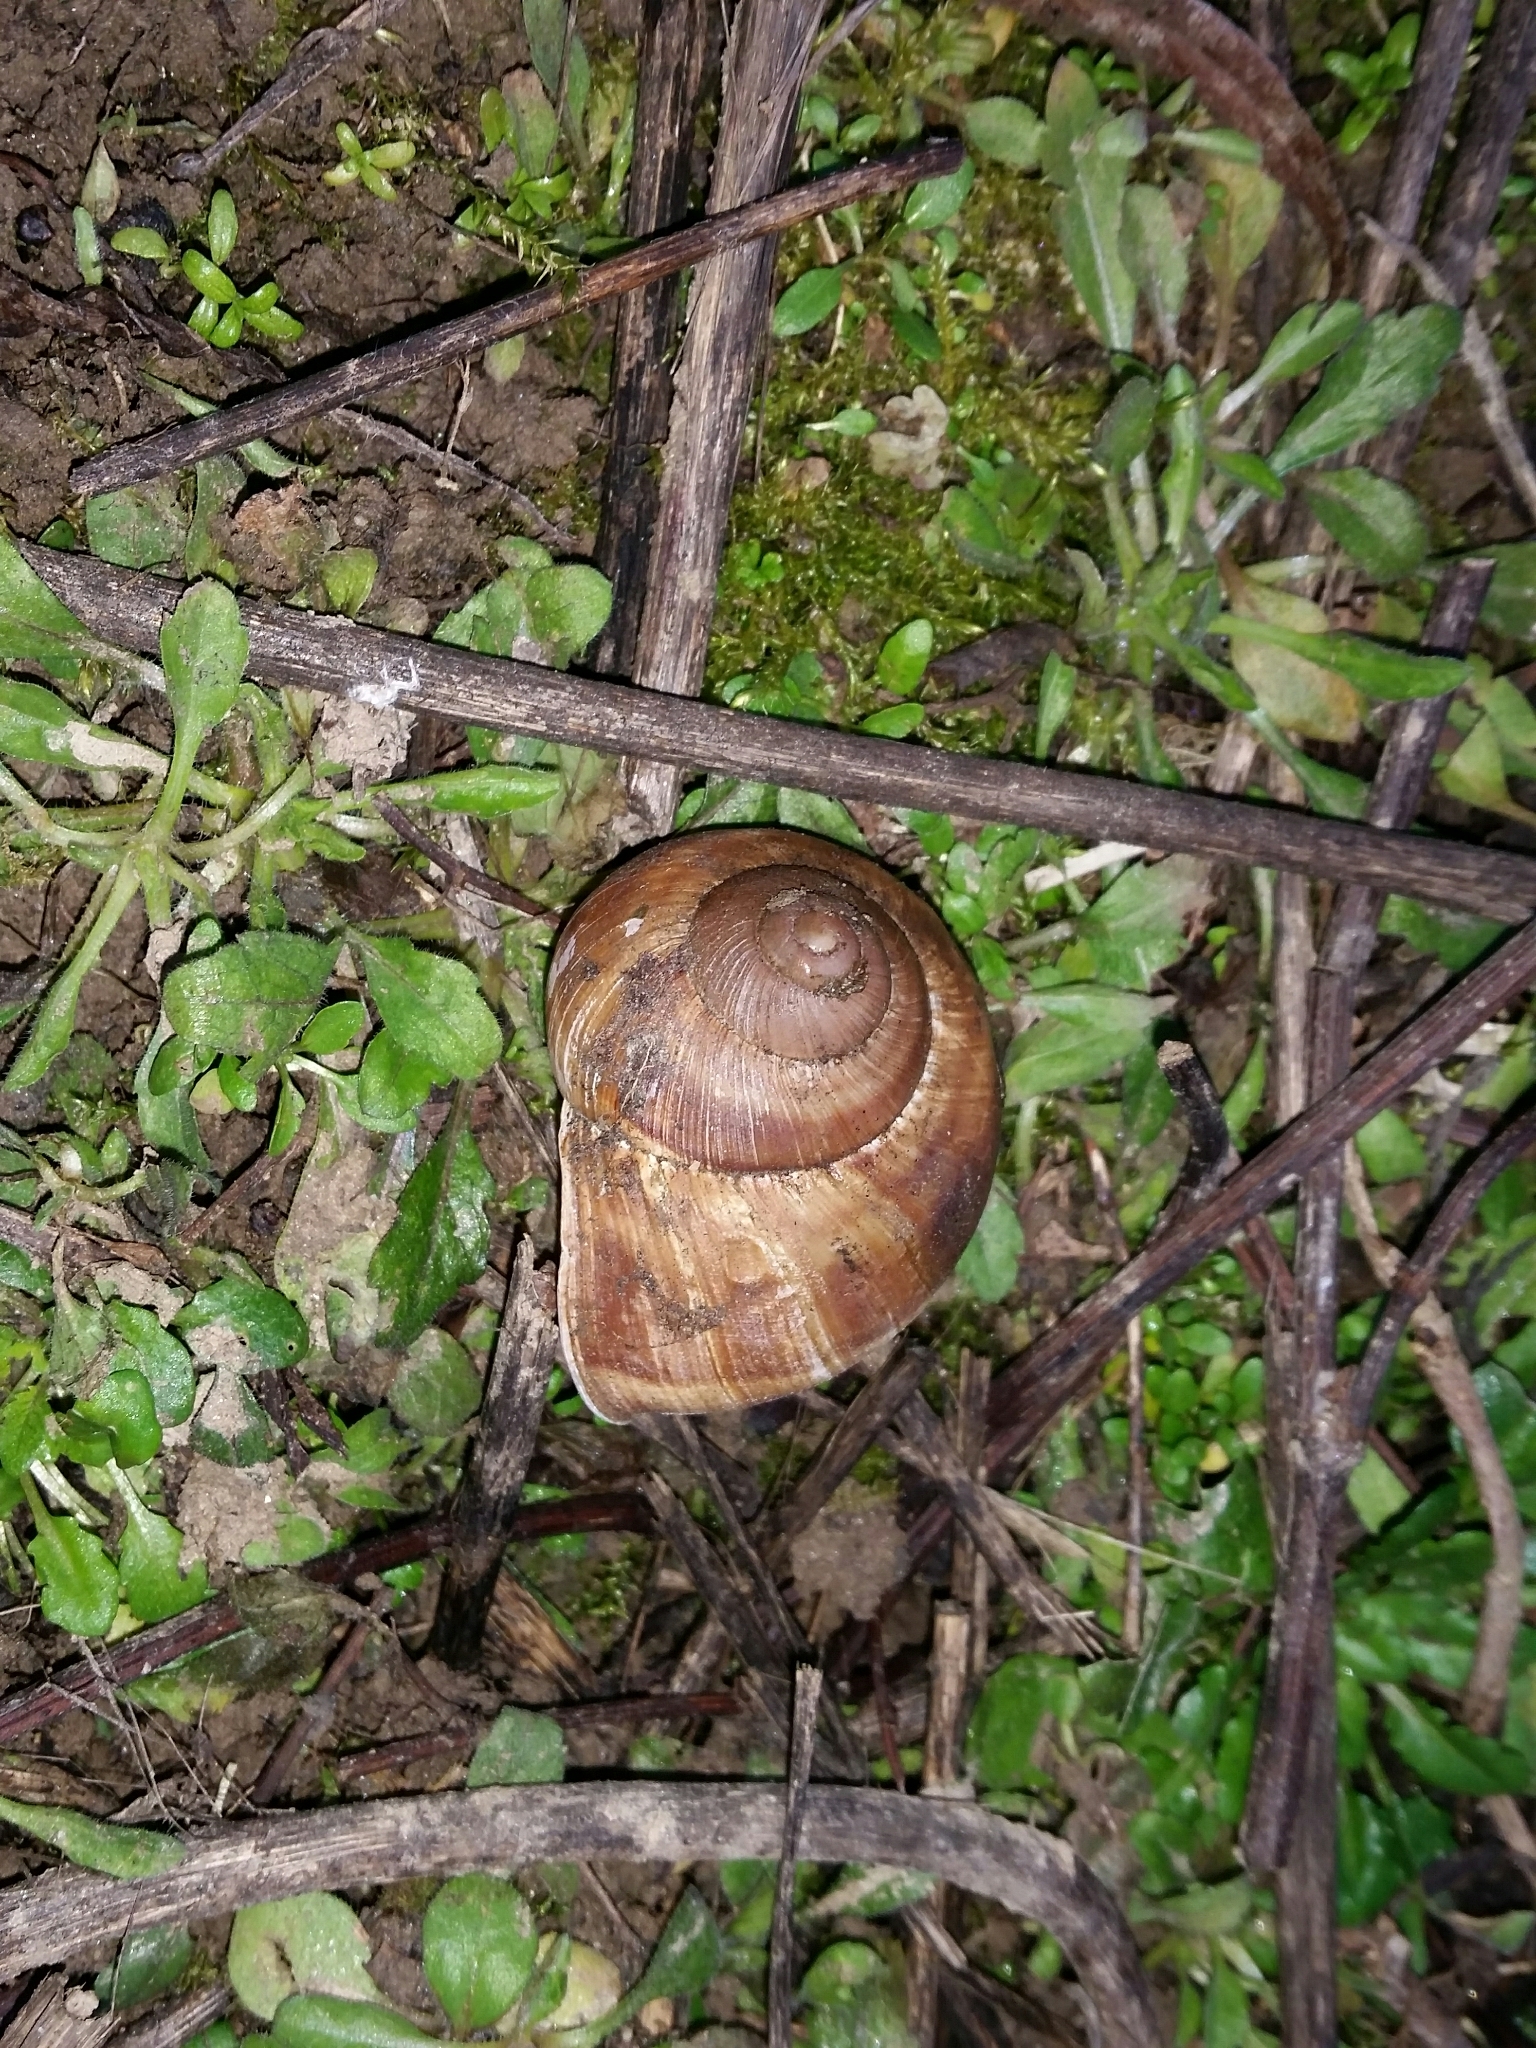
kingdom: Animalia
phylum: Mollusca
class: Gastropoda
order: Stylommatophora
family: Helicidae
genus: Helix
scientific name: Helix pomatia
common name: Roman snail
